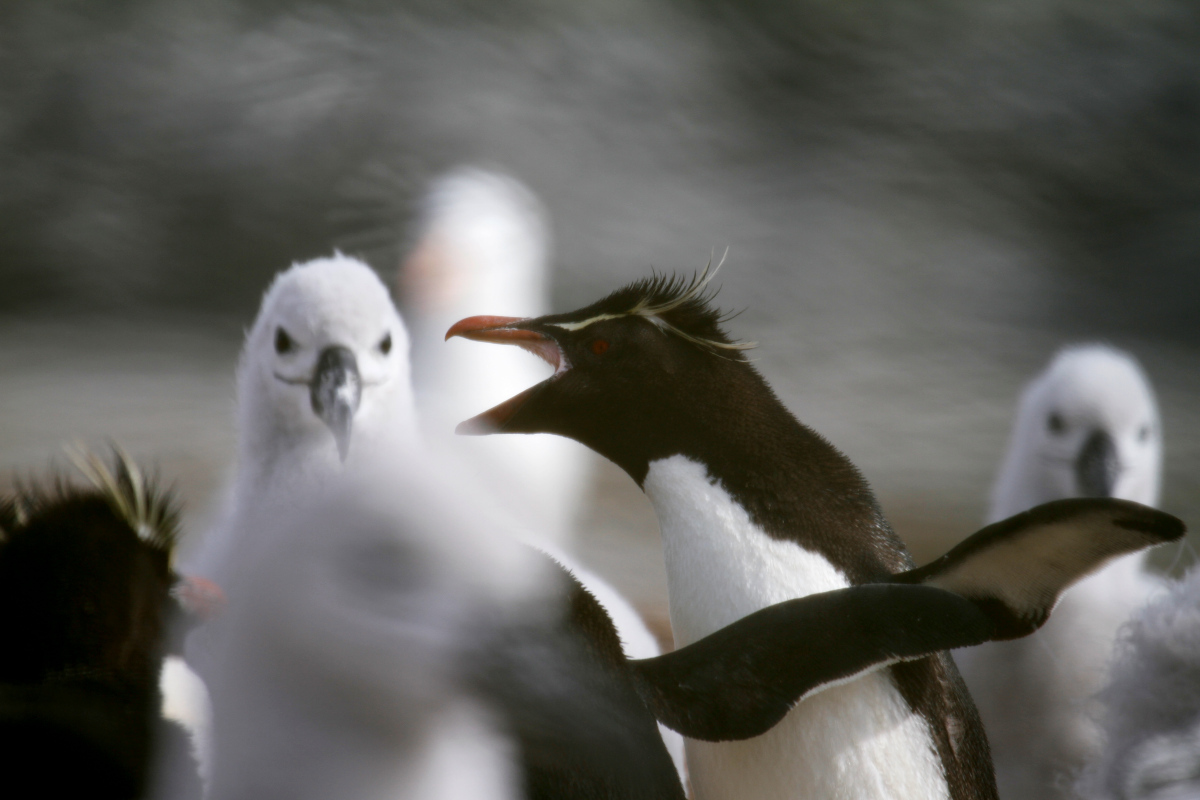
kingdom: Animalia
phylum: Chordata
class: Aves
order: Sphenisciformes
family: Spheniscidae
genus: Eudyptes
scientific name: Eudyptes chrysocome
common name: Southern rockhopper penguin
